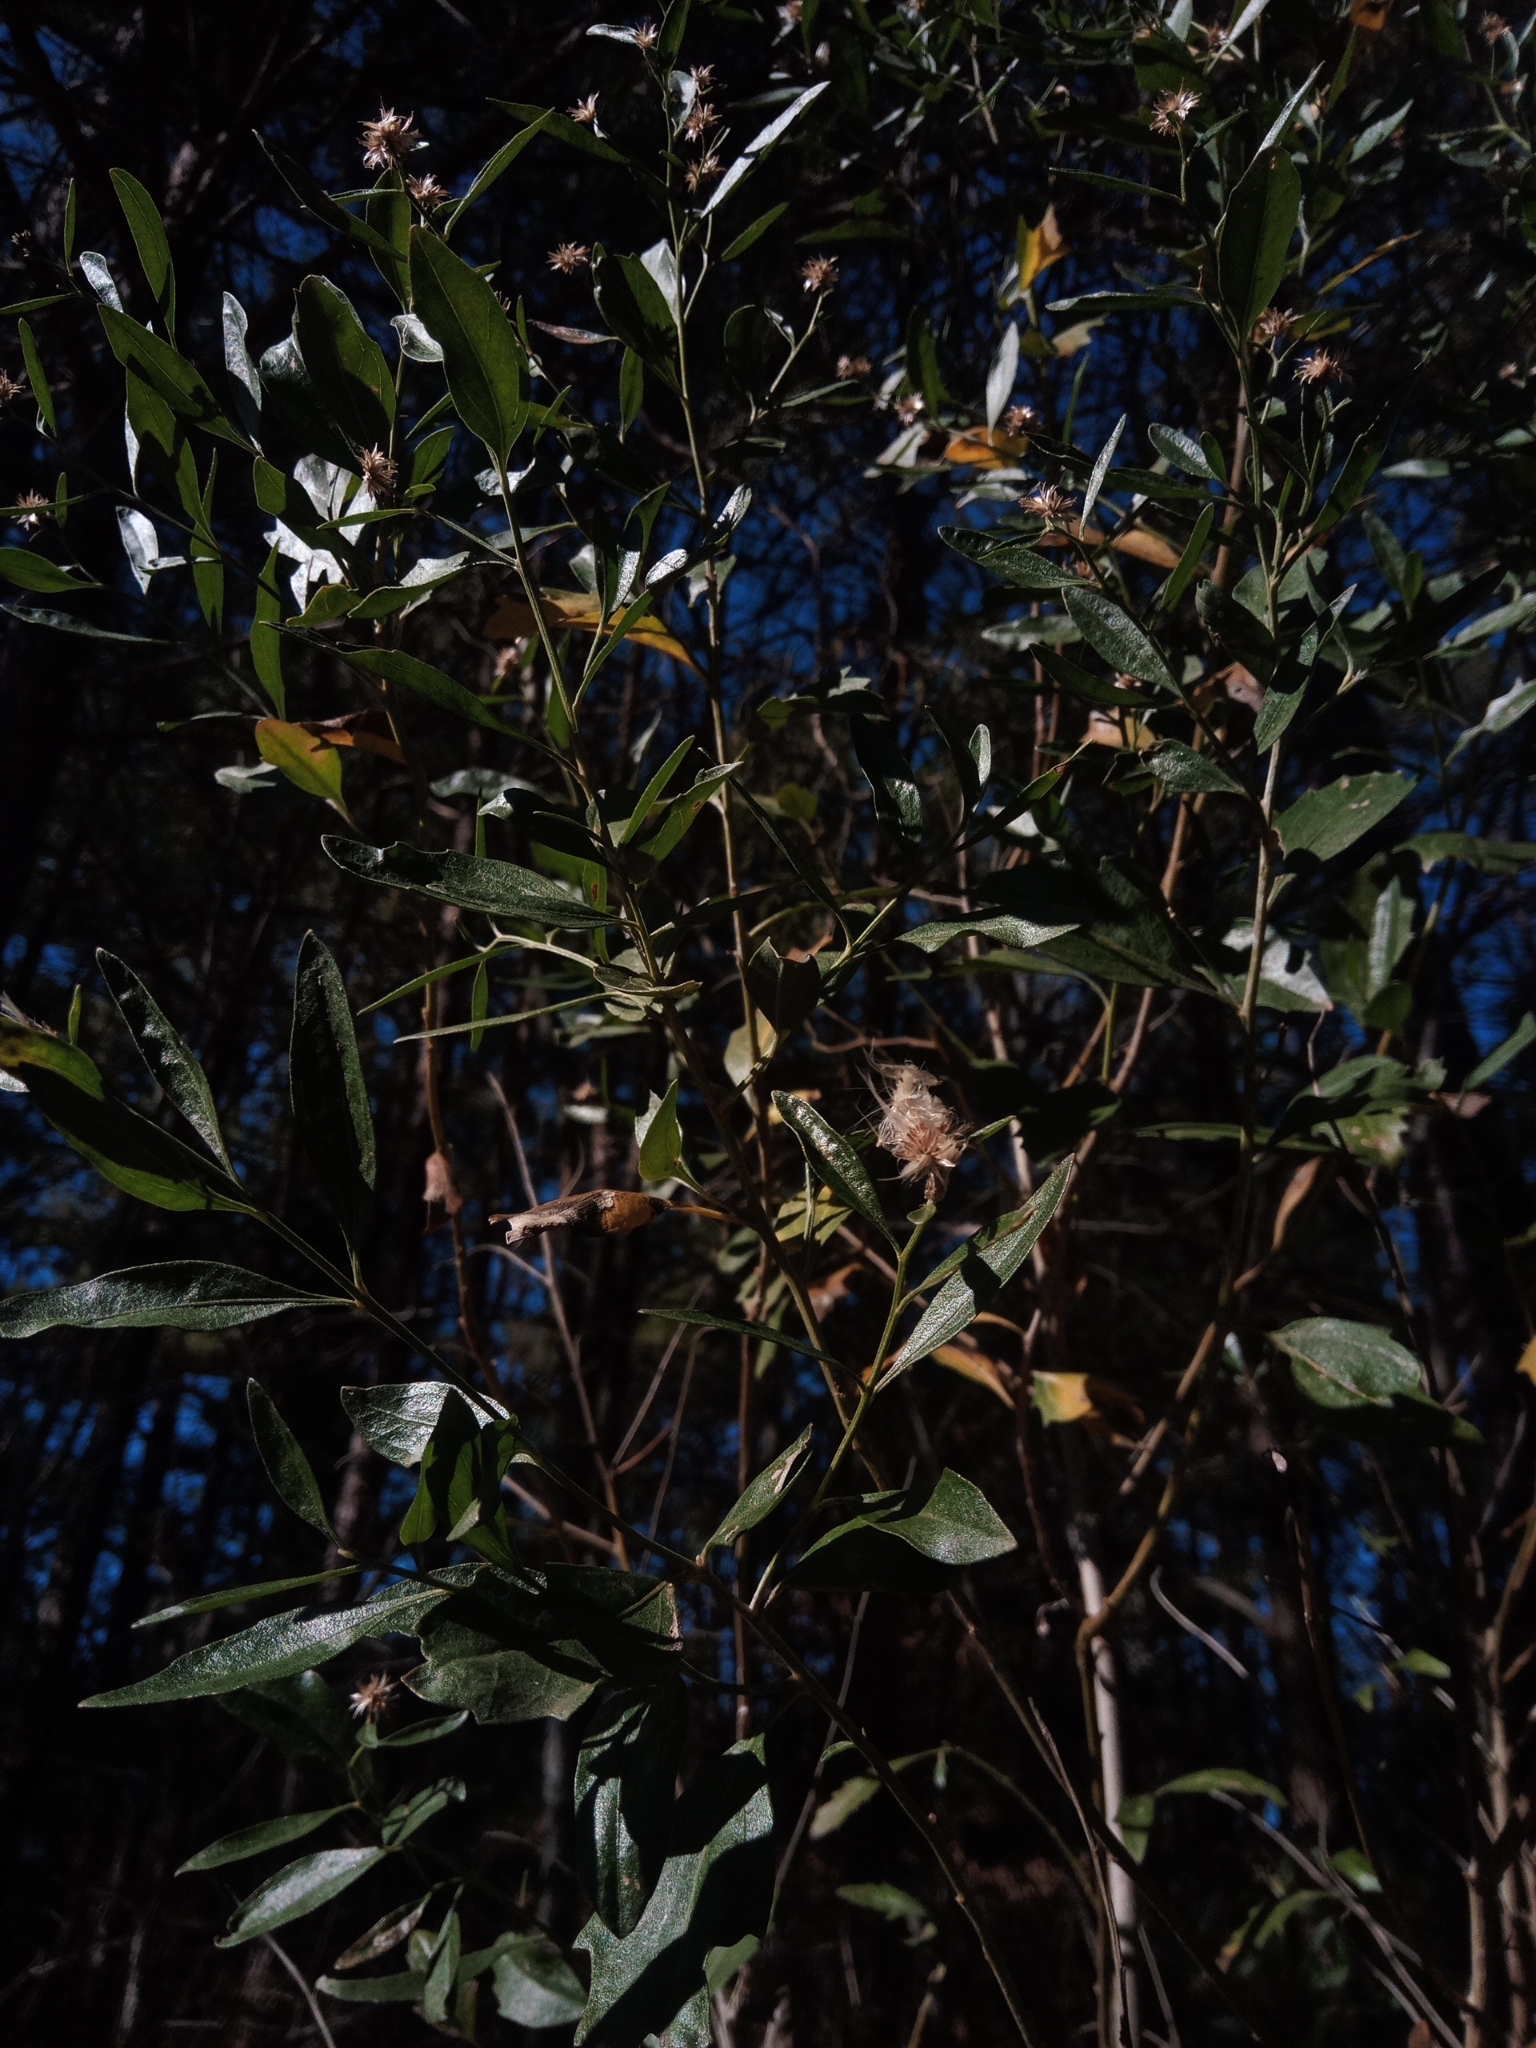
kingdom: Plantae
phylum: Tracheophyta
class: Magnoliopsida
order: Asterales
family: Asteraceae
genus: Baccharis
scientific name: Baccharis halimifolia
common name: Eastern baccharis
